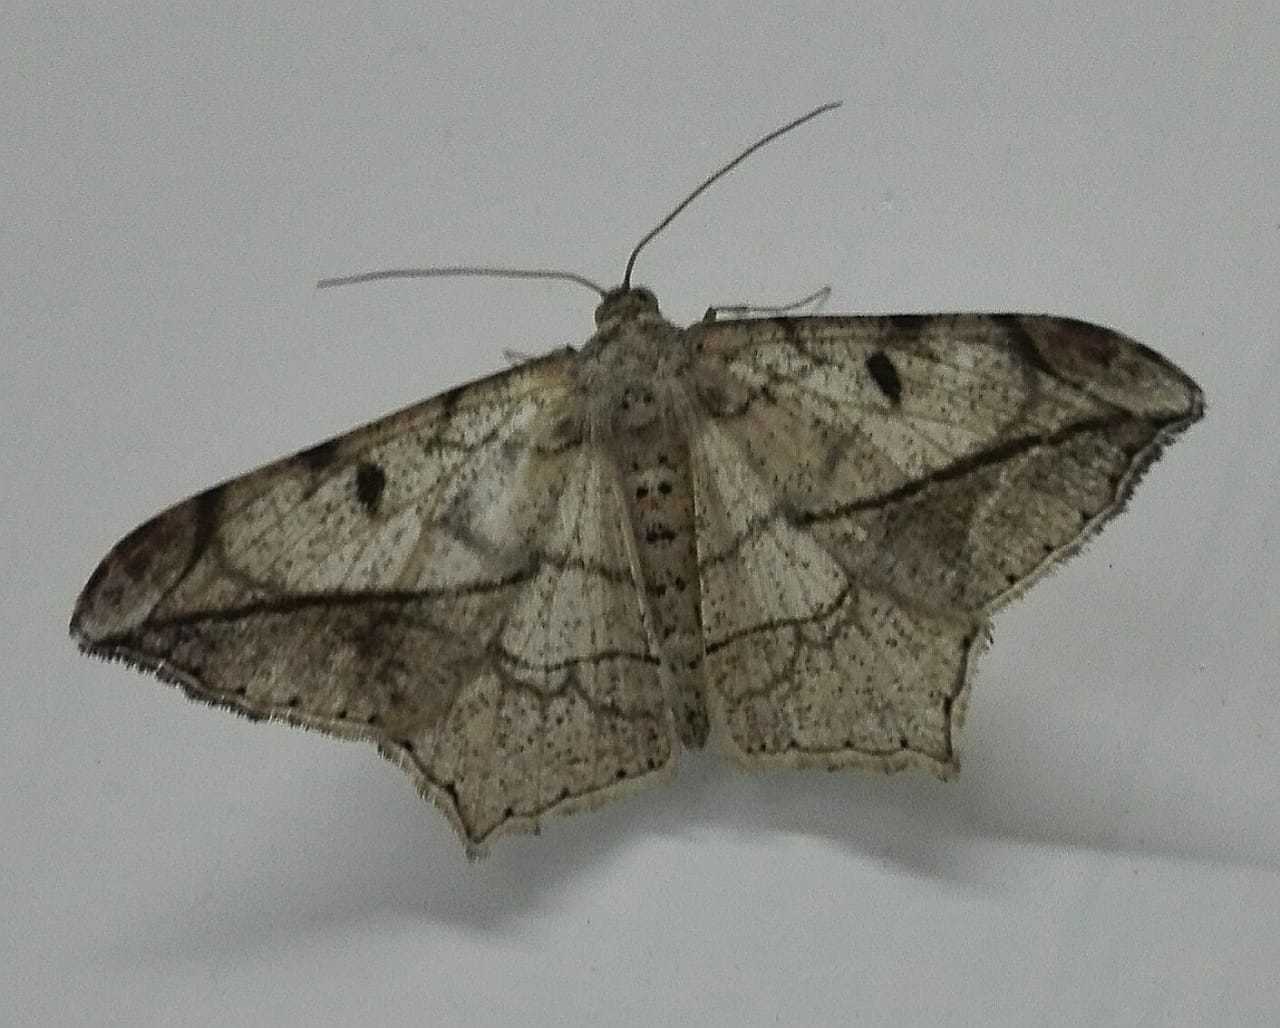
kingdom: Animalia
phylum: Arthropoda
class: Insecta
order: Lepidoptera
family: Geometridae
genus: Chiasmia
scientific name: Chiasmia simplicilinea
